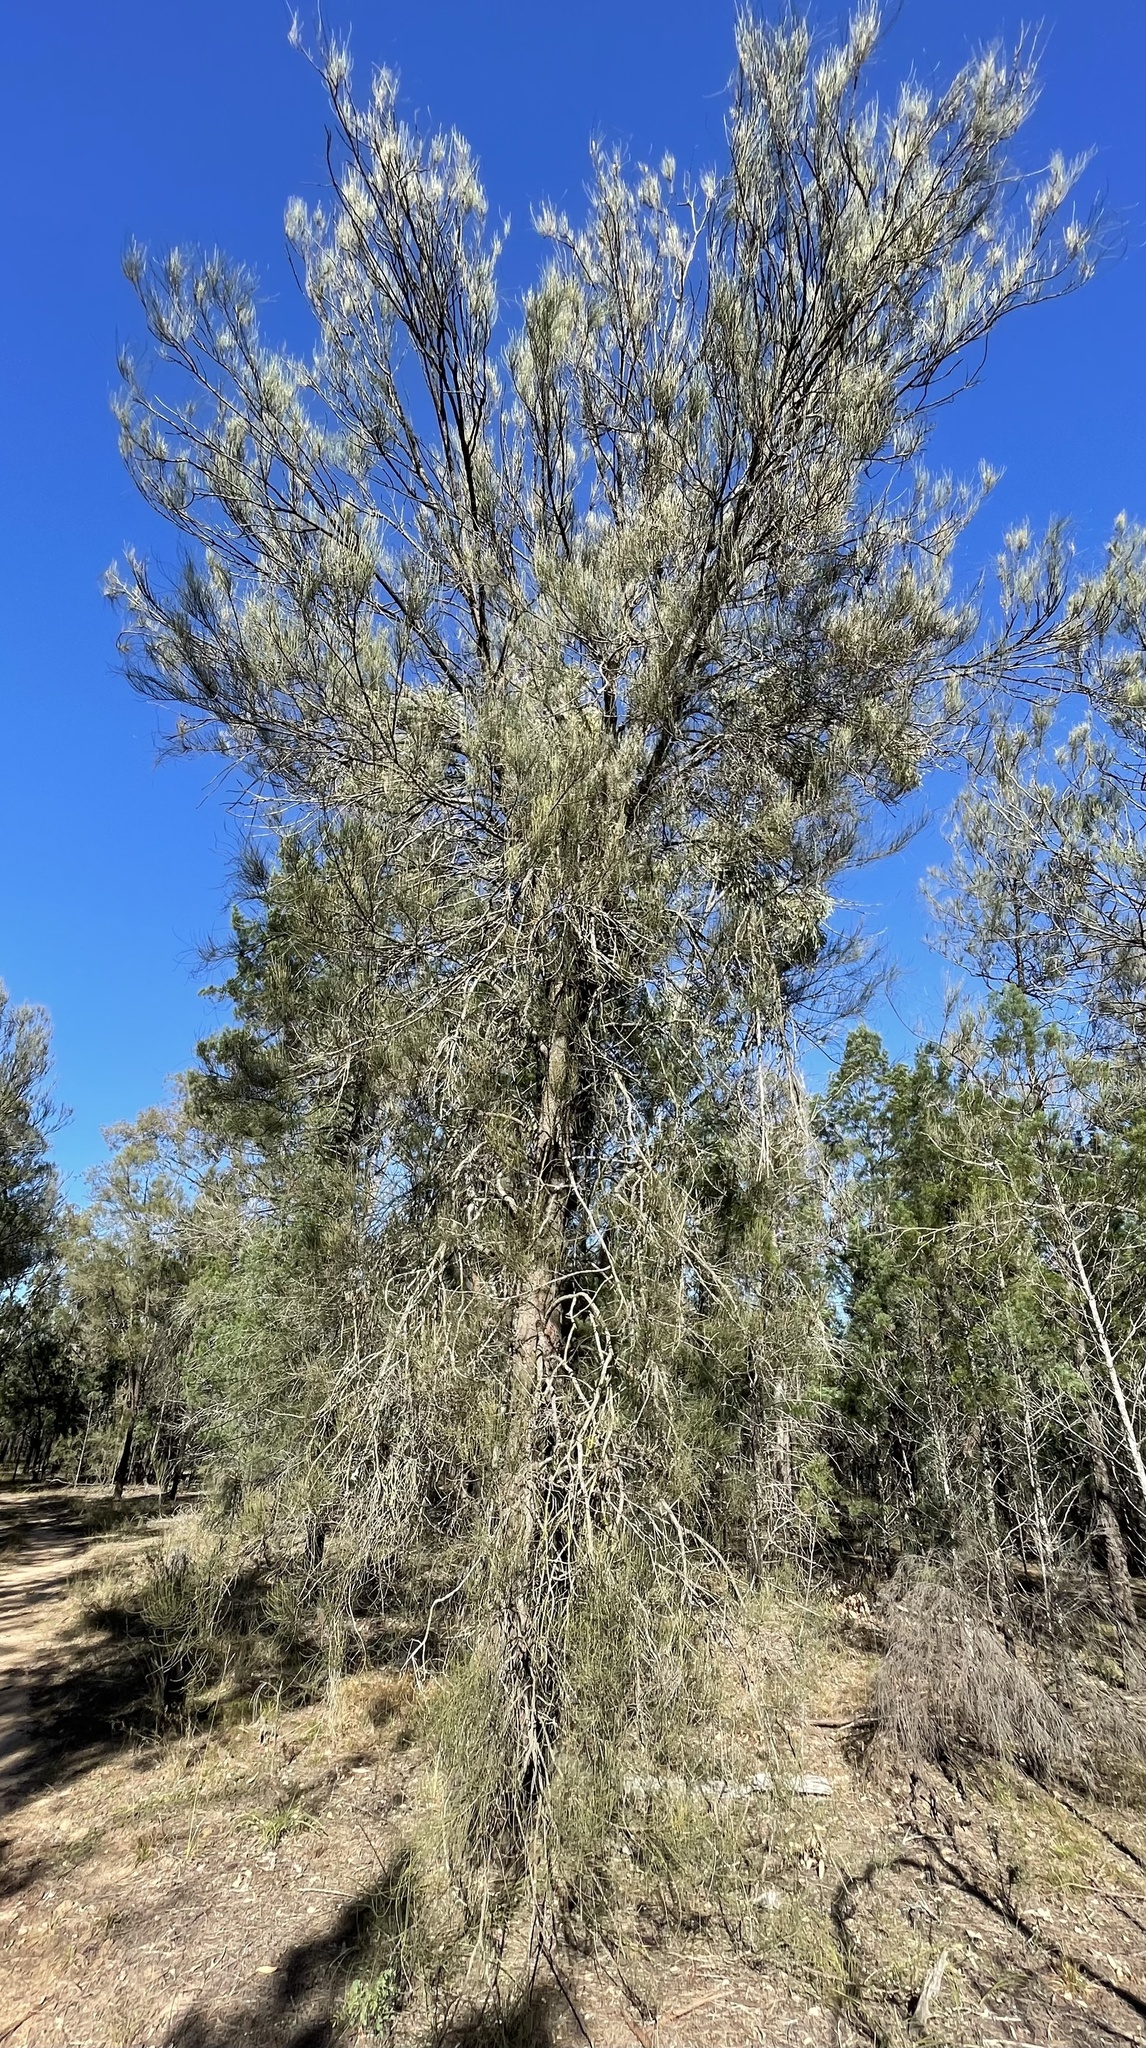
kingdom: Plantae
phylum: Tracheophyta
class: Magnoliopsida
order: Fagales
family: Casuarinaceae
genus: Allocasuarina
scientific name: Allocasuarina luehmannii
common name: Bull-oak
